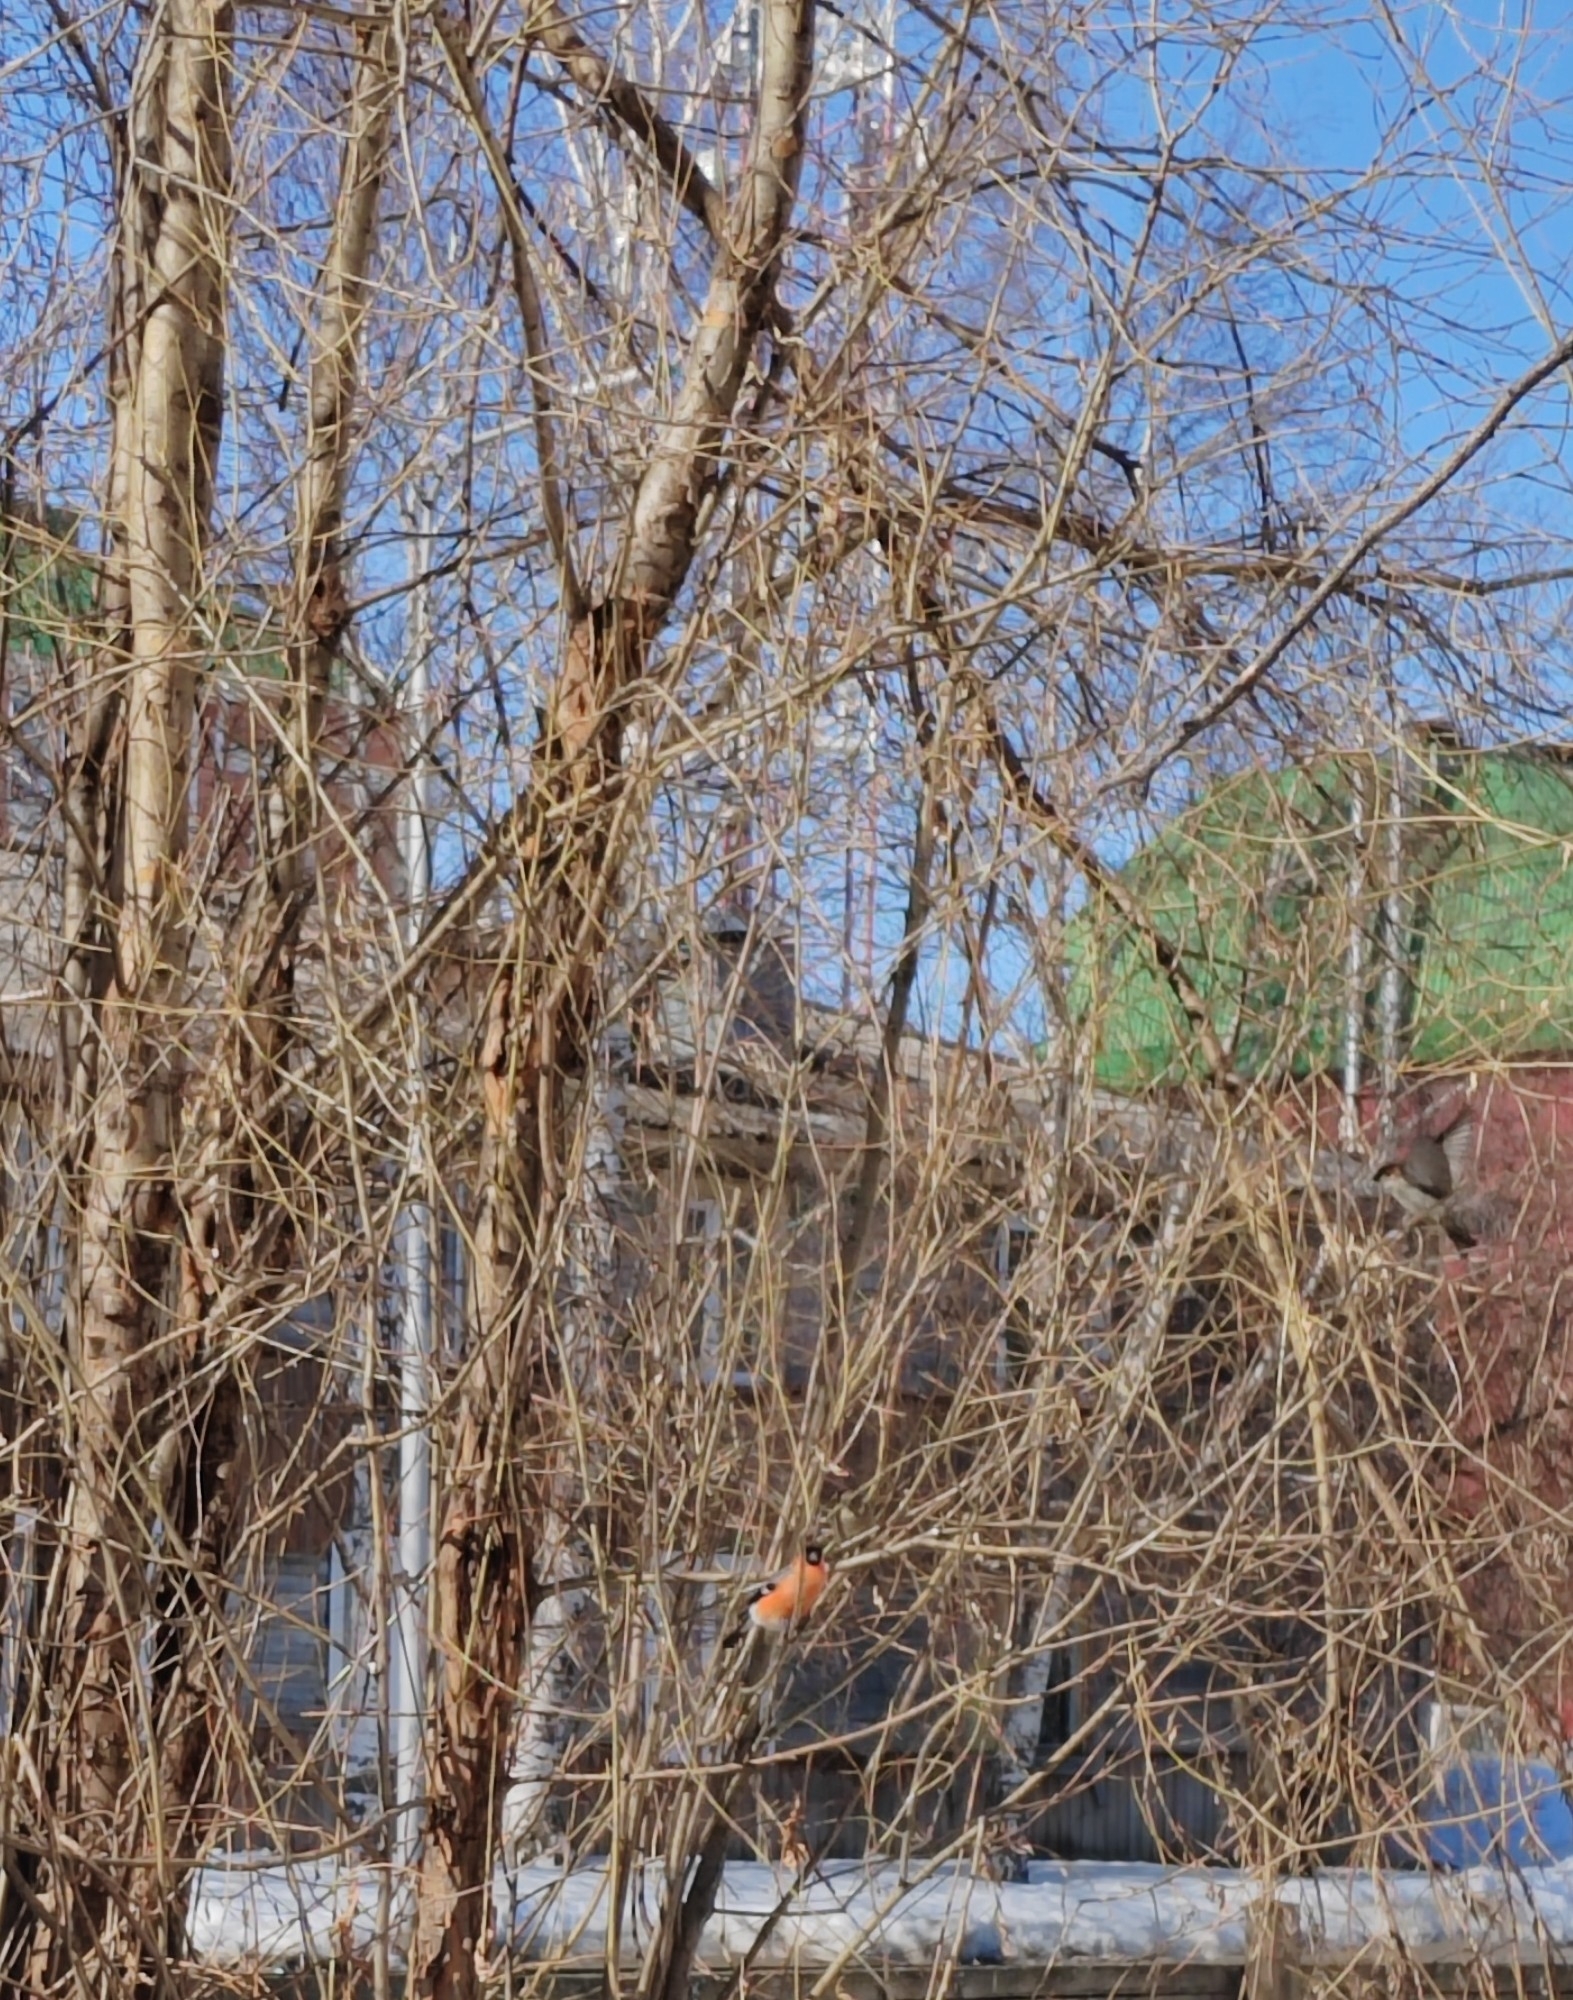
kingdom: Animalia
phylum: Chordata
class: Aves
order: Passeriformes
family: Fringillidae
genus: Pyrrhula
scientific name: Pyrrhula pyrrhula
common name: Eurasian bullfinch
